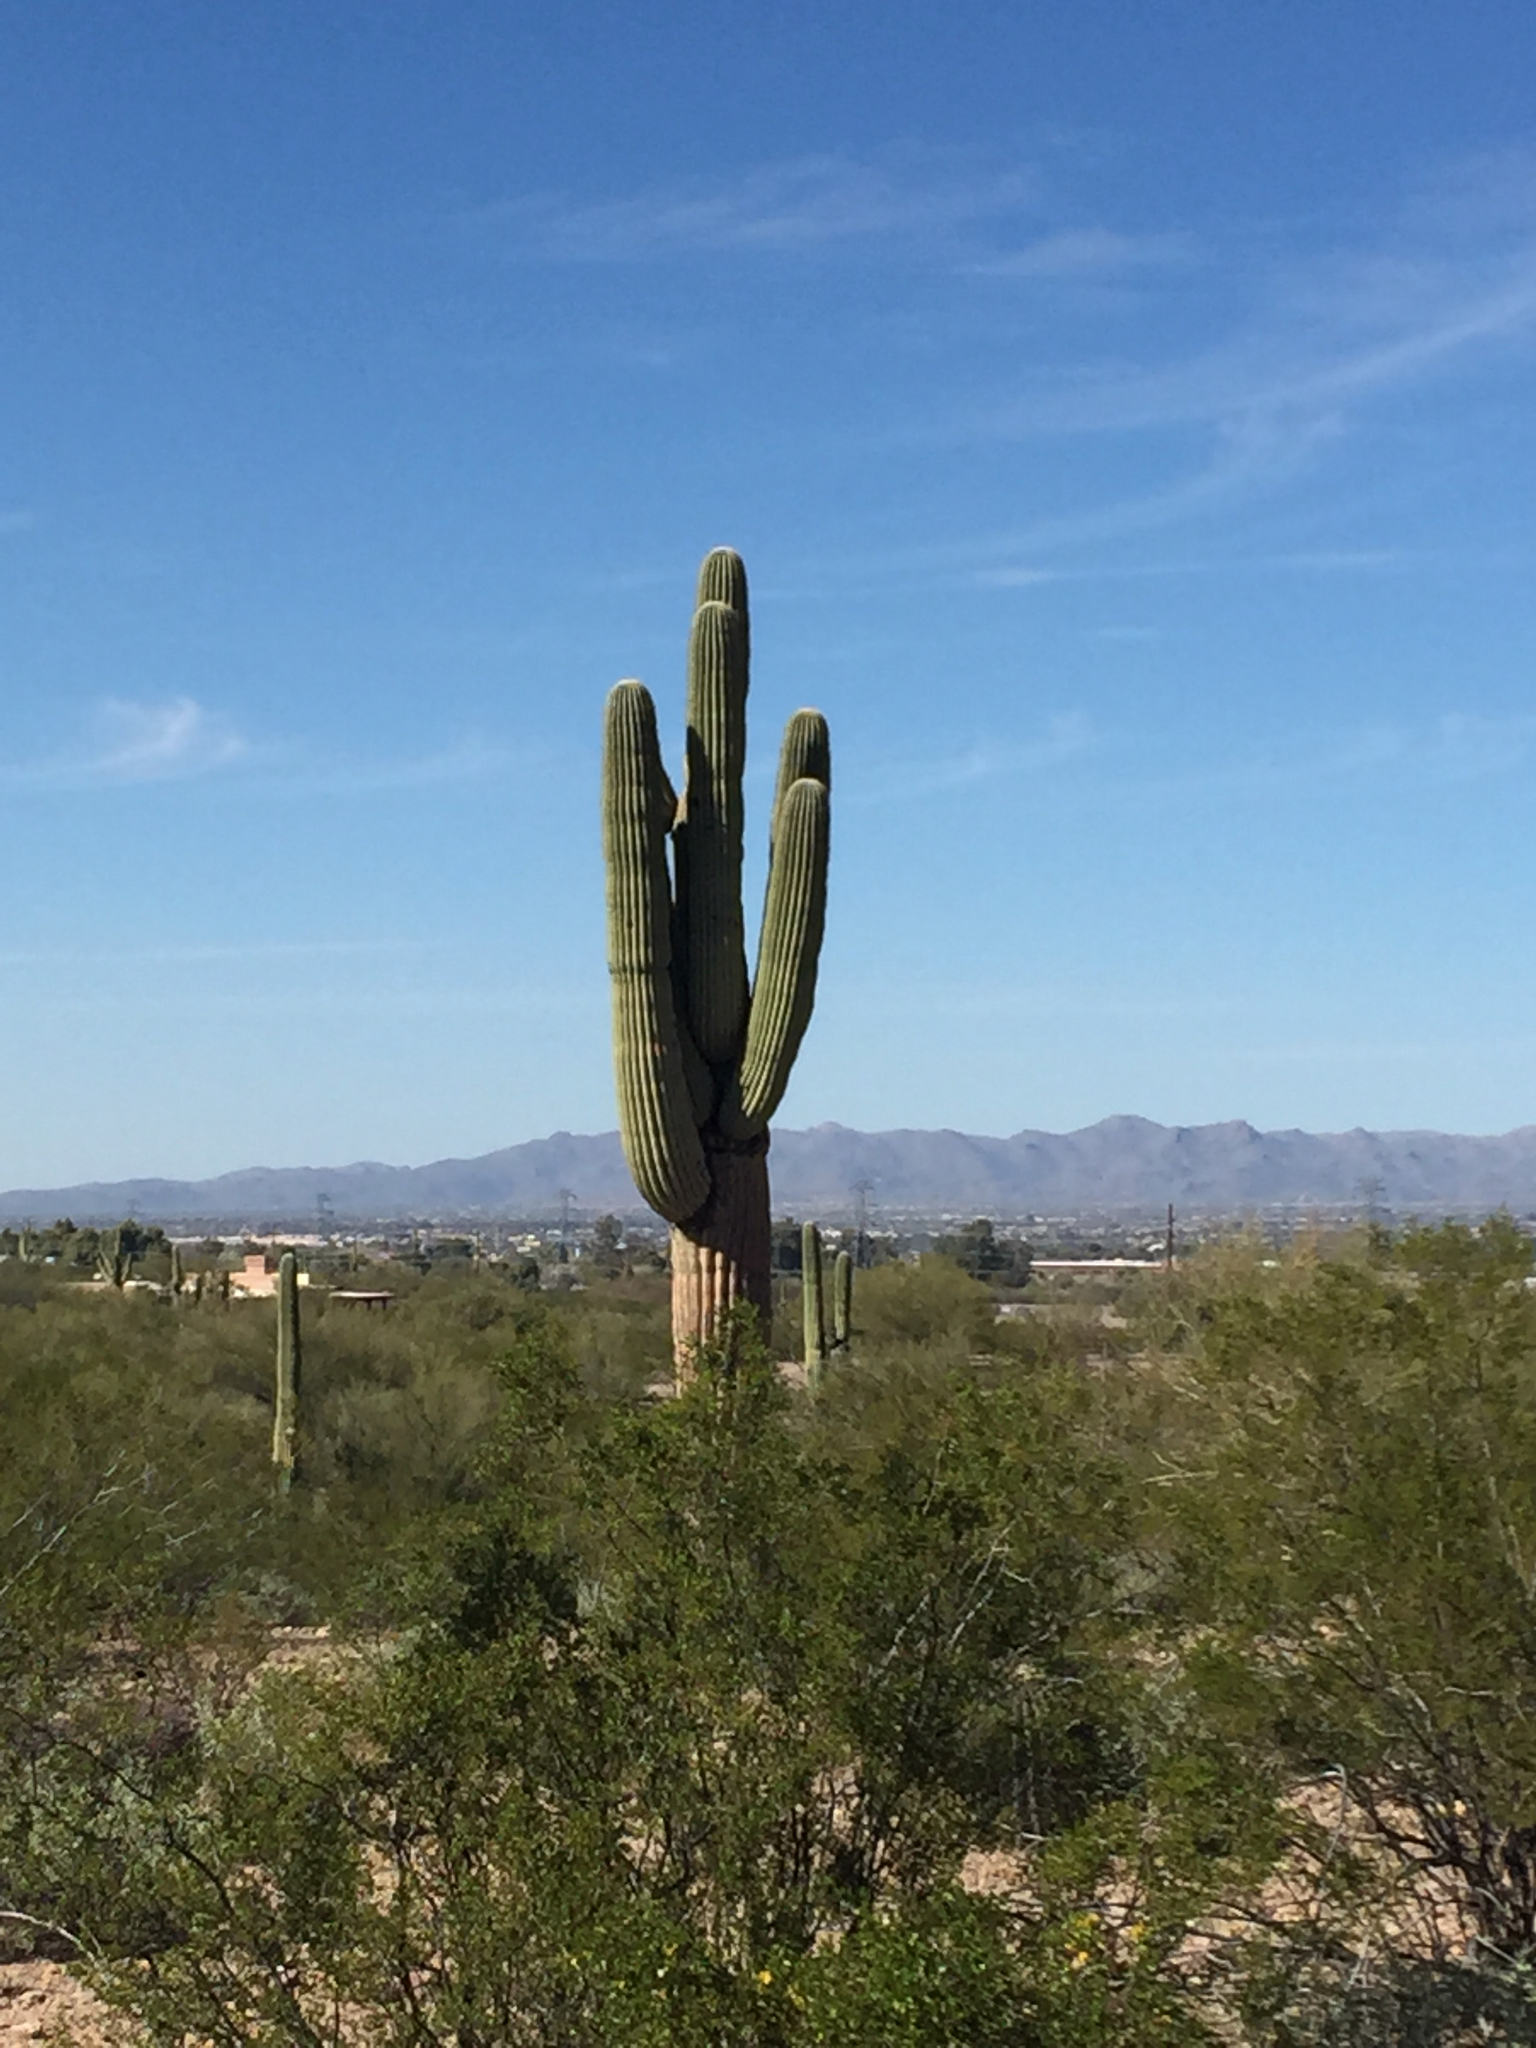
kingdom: Plantae
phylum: Tracheophyta
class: Magnoliopsida
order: Caryophyllales
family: Cactaceae
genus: Carnegiea
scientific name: Carnegiea gigantea
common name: Saguaro
